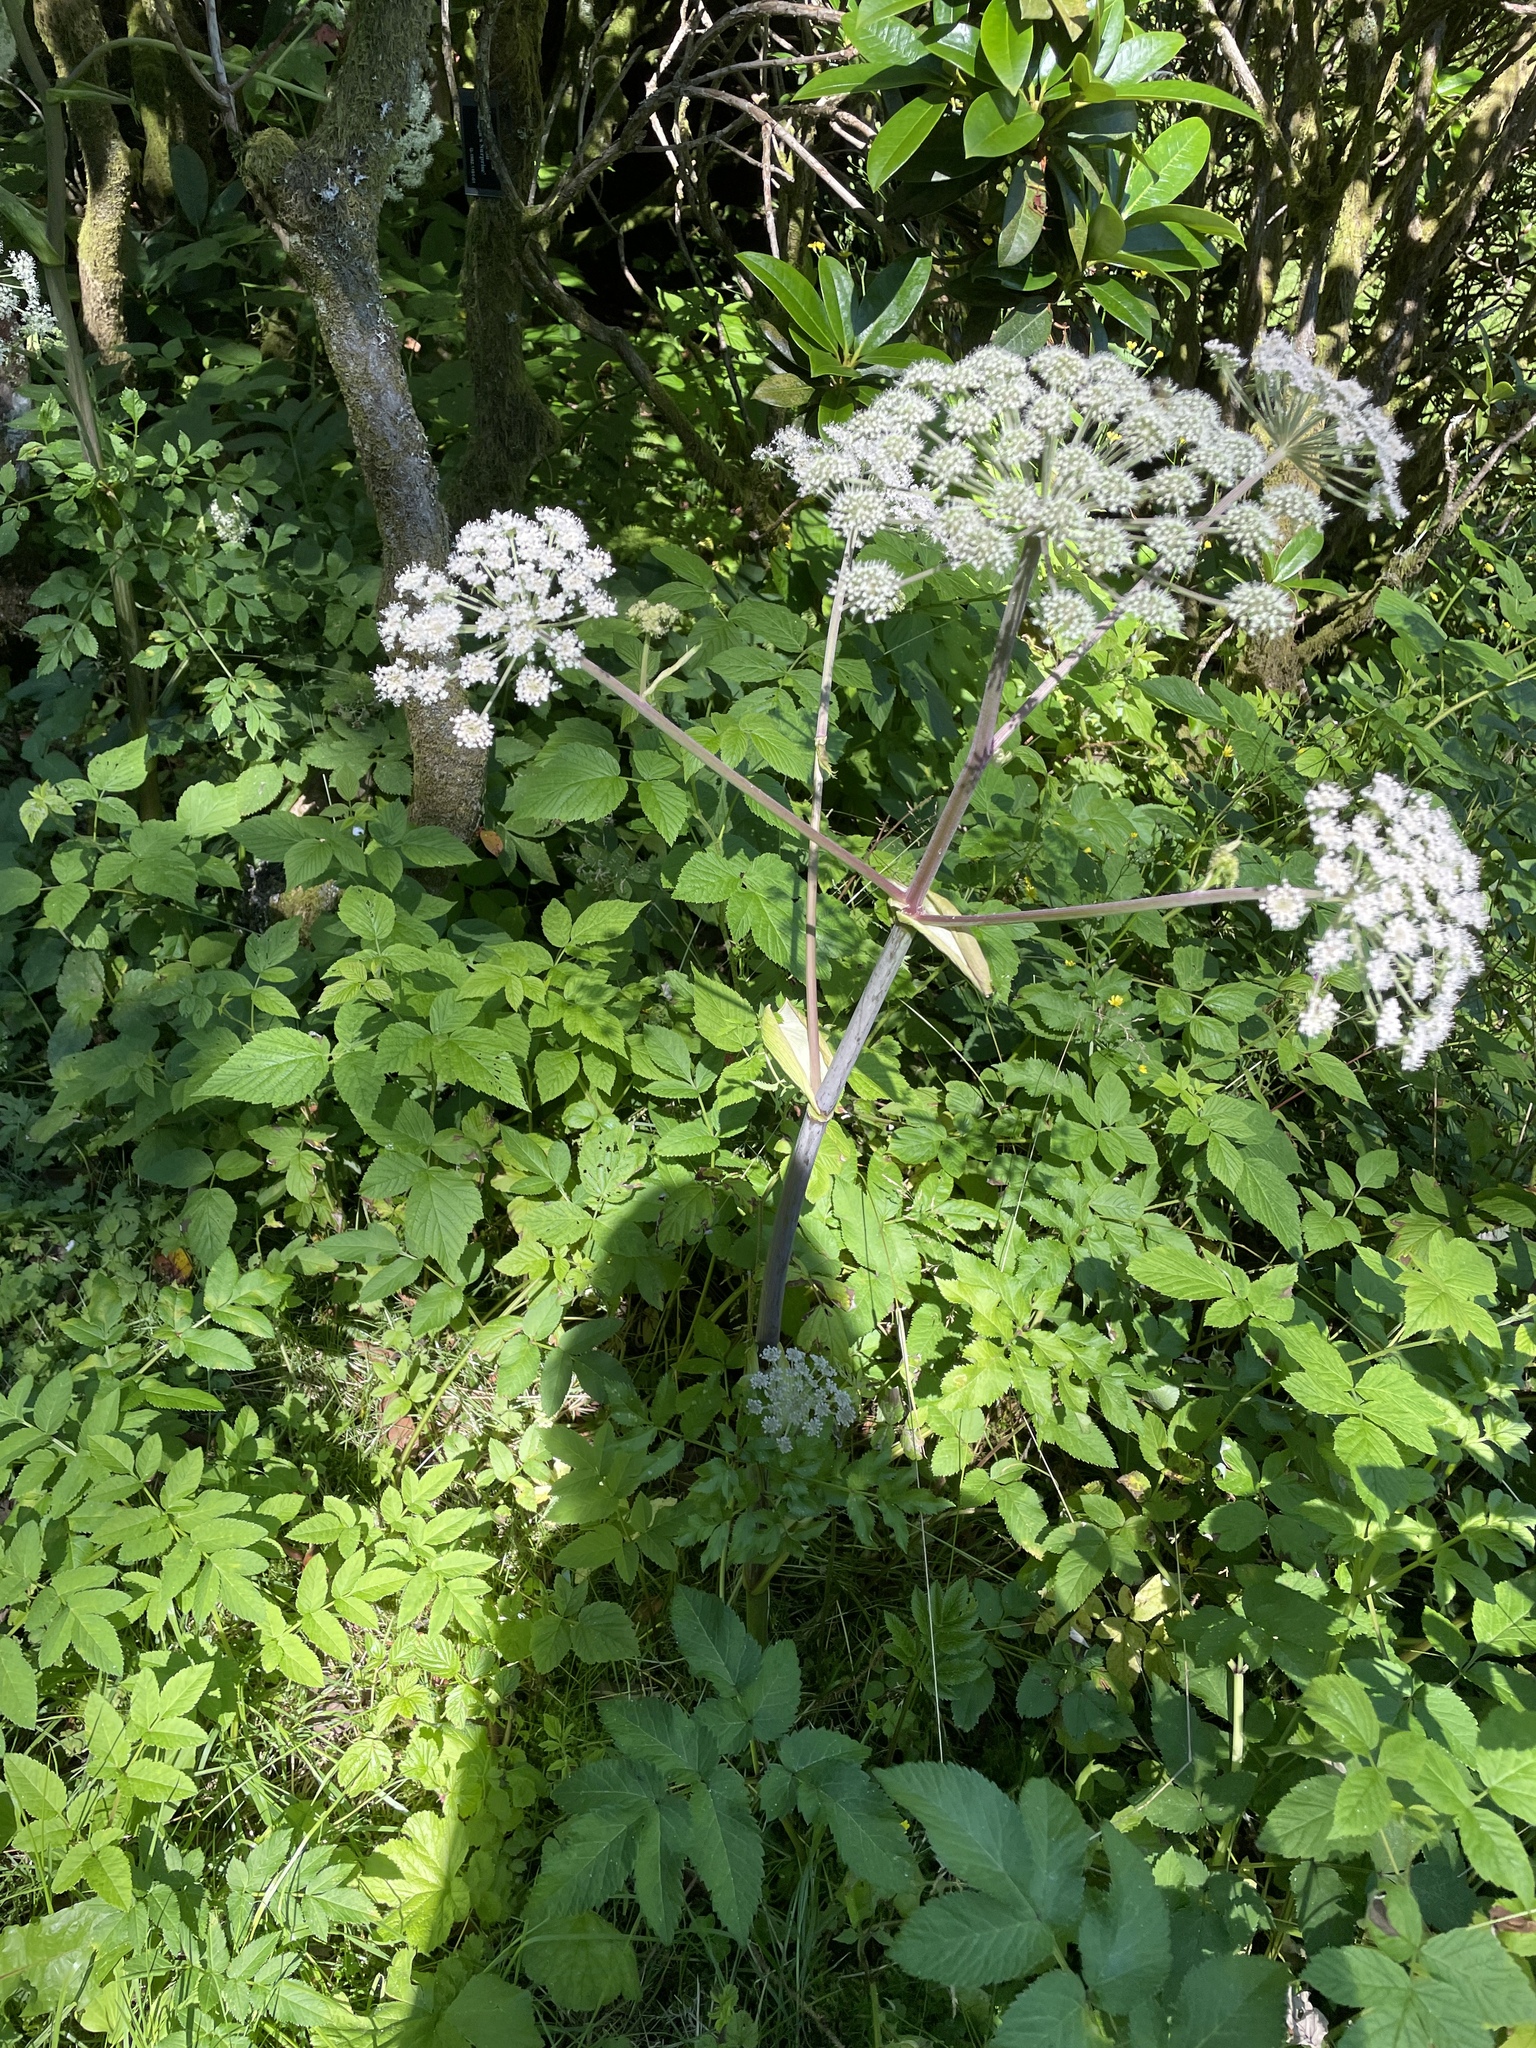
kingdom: Plantae
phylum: Tracheophyta
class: Magnoliopsida
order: Apiales
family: Apiaceae
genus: Angelica
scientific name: Angelica sylvestris
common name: Wild angelica
